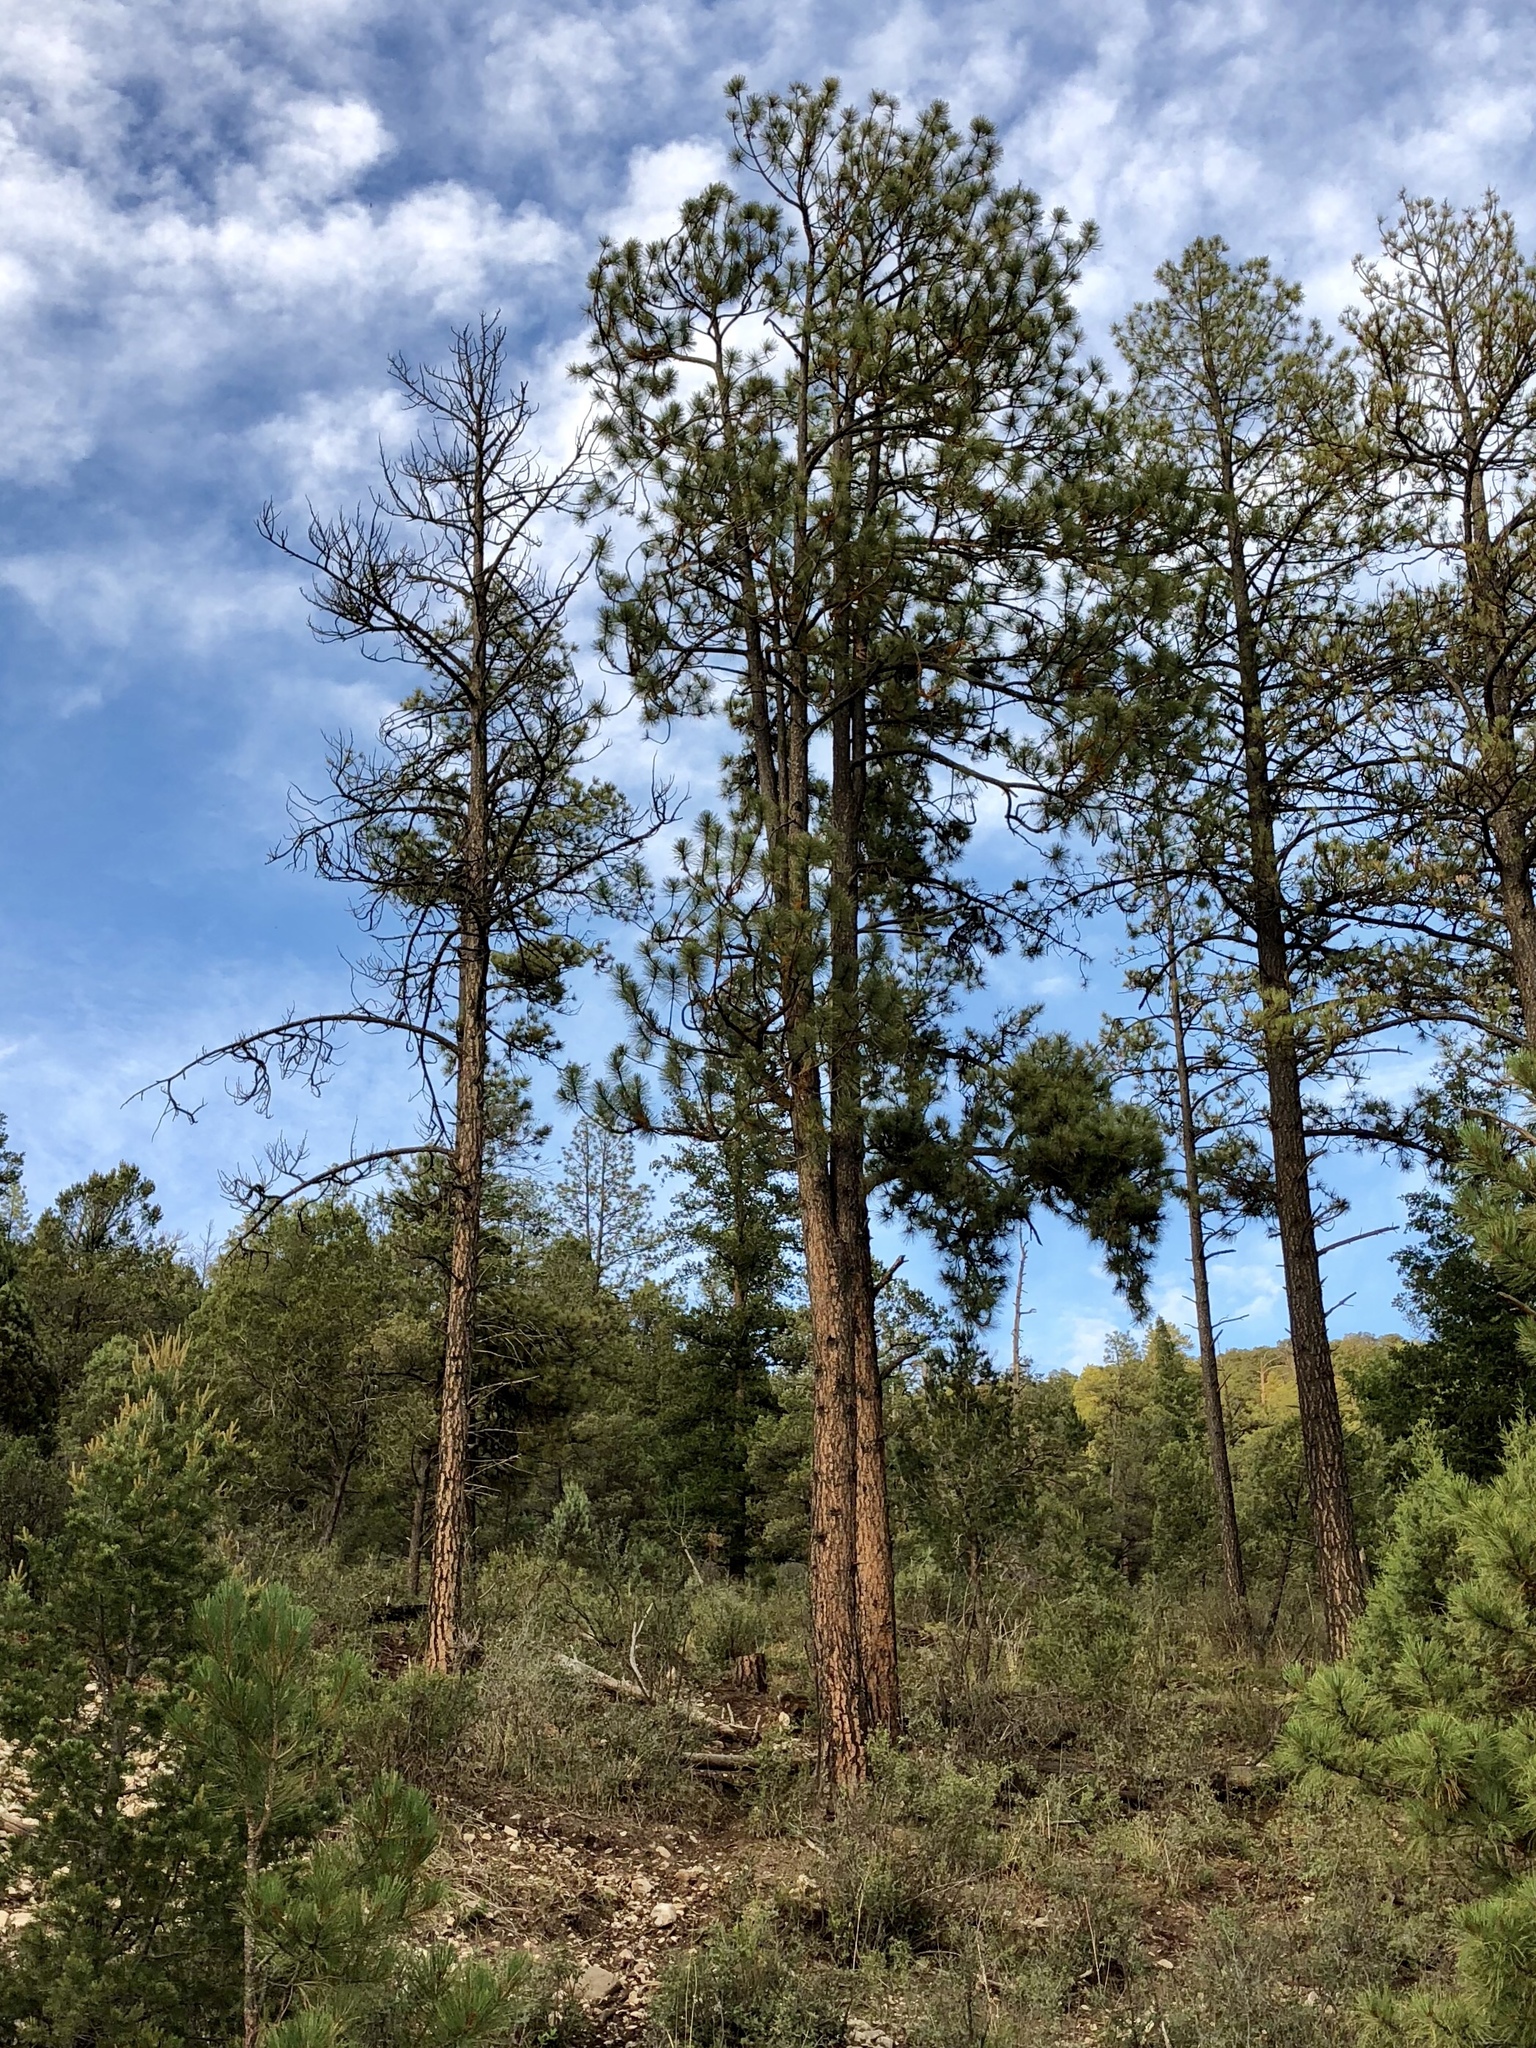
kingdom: Plantae
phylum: Tracheophyta
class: Pinopsida
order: Pinales
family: Pinaceae
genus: Pinus
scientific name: Pinus ponderosa
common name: Western yellow-pine
